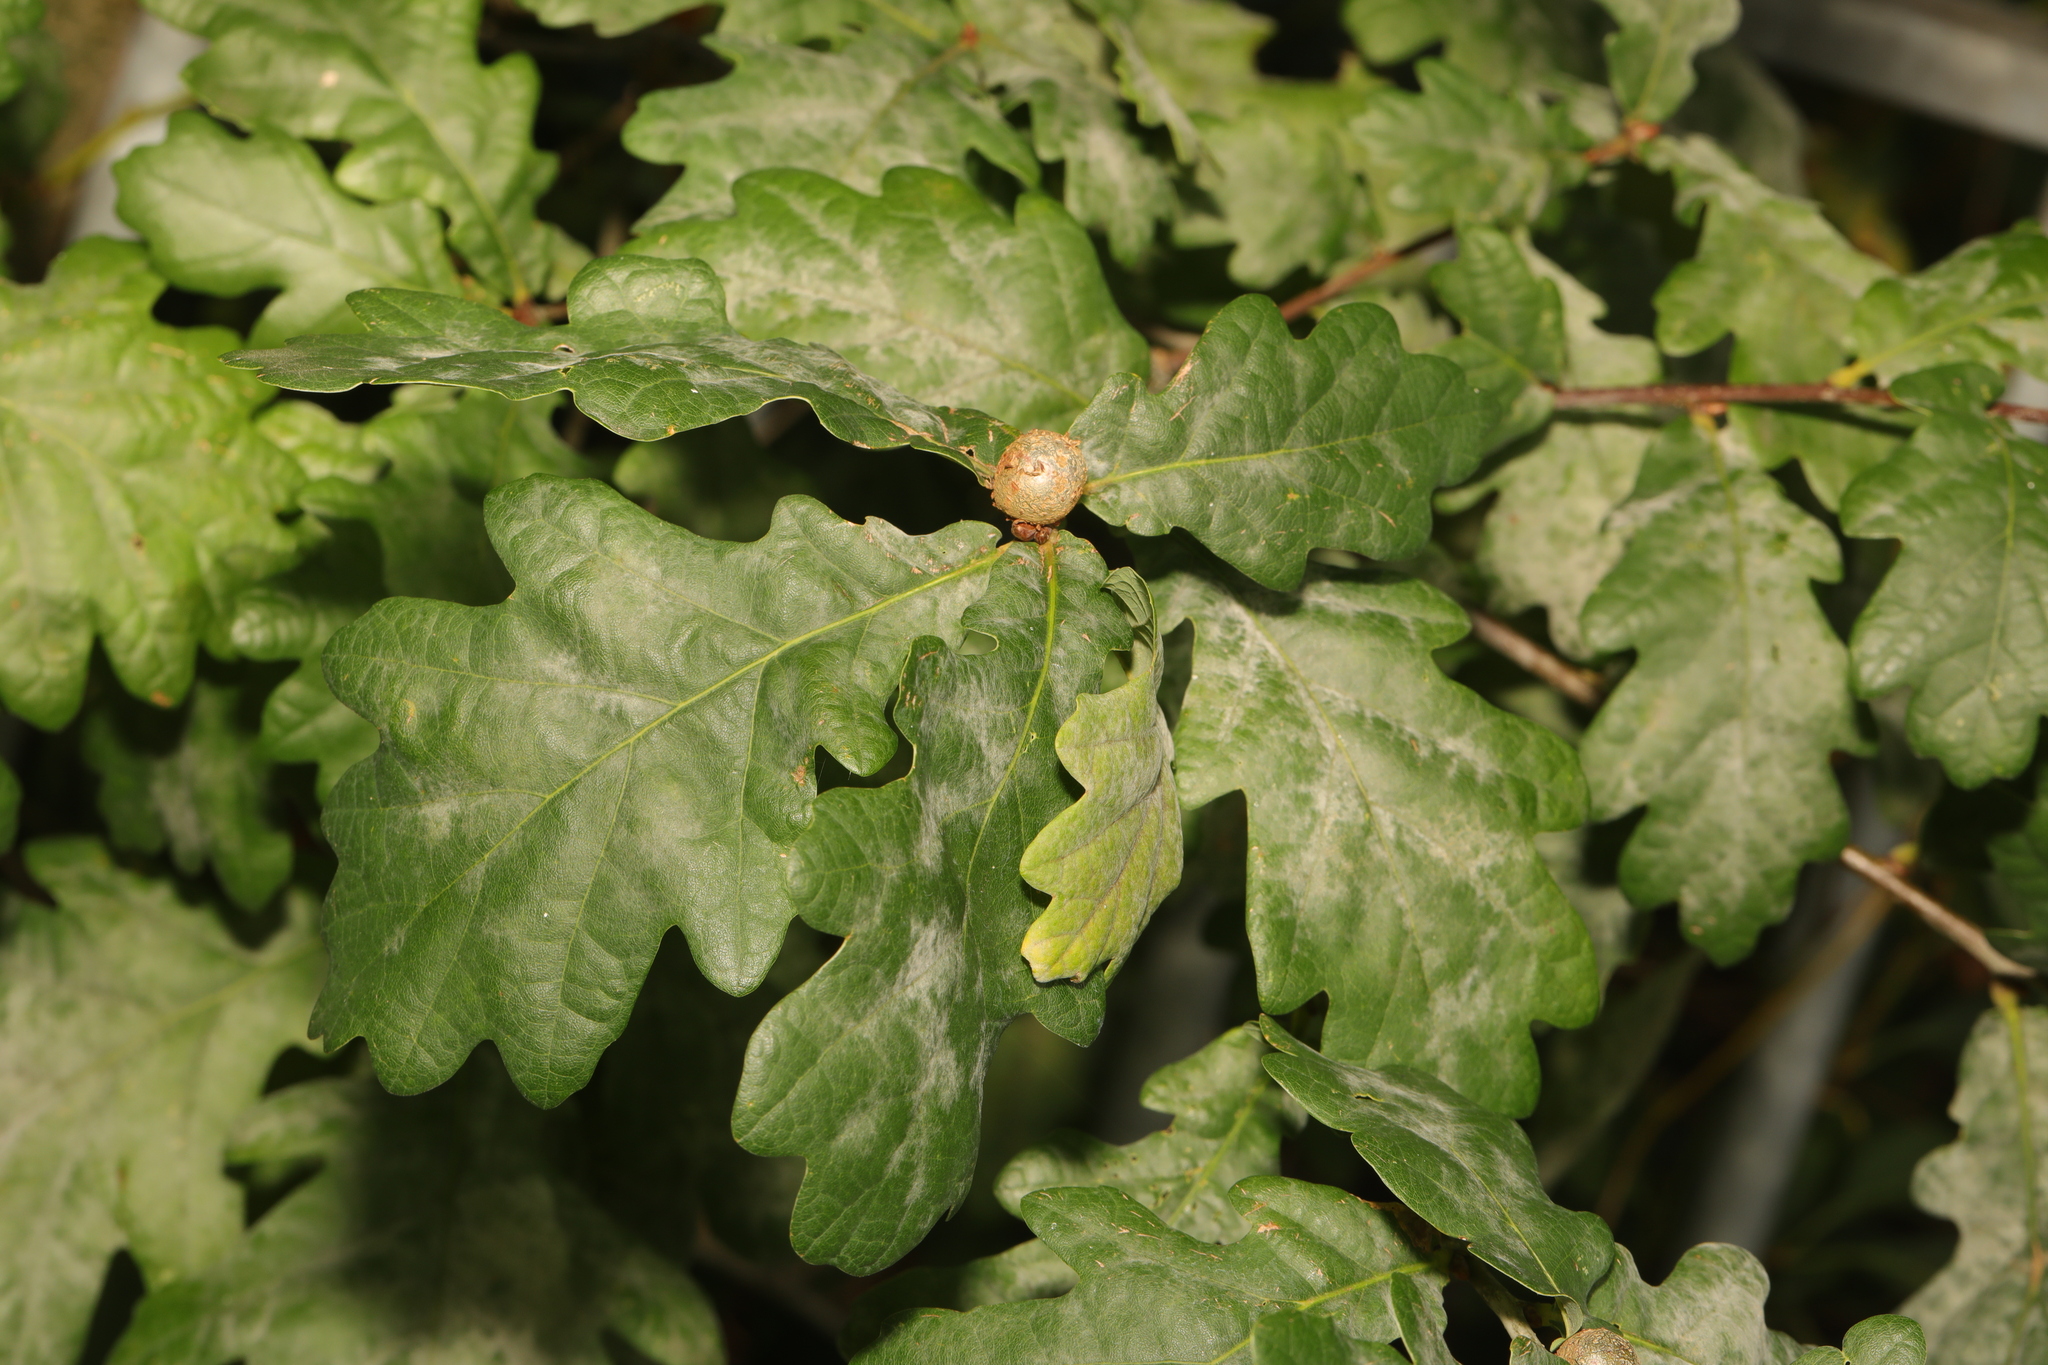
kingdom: Plantae
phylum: Tracheophyta
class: Magnoliopsida
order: Fagales
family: Fagaceae
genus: Quercus
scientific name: Quercus robur
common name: Pedunculate oak
